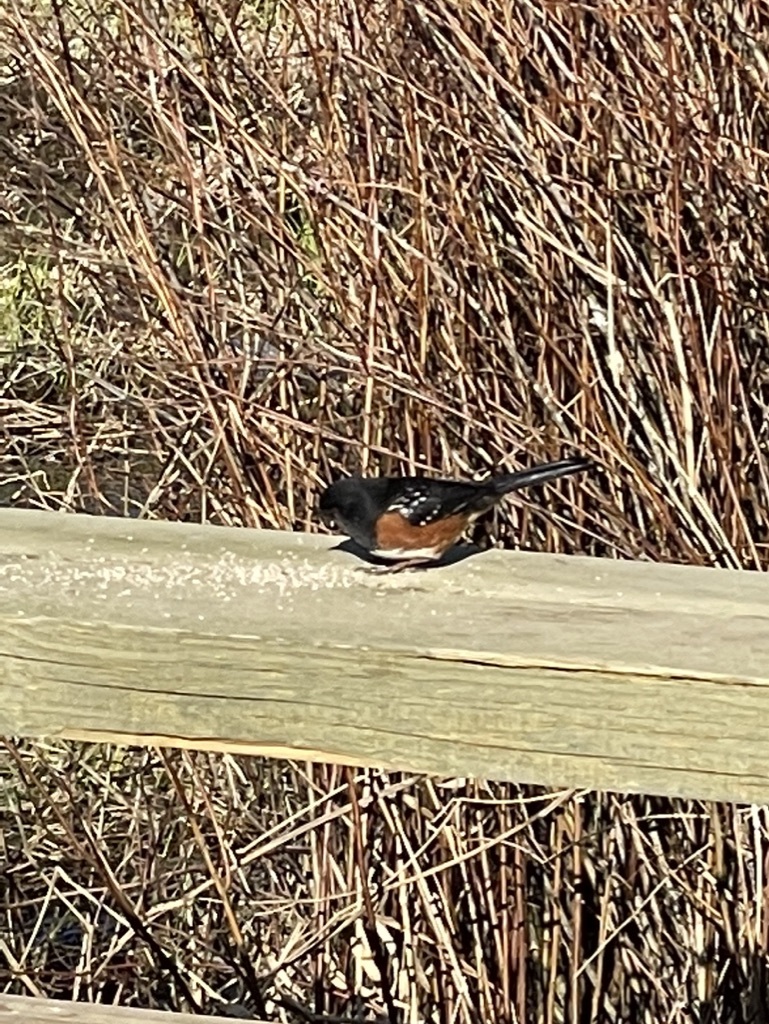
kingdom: Animalia
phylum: Chordata
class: Aves
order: Passeriformes
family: Passerellidae
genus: Pipilo
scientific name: Pipilo maculatus
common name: Spotted towhee
